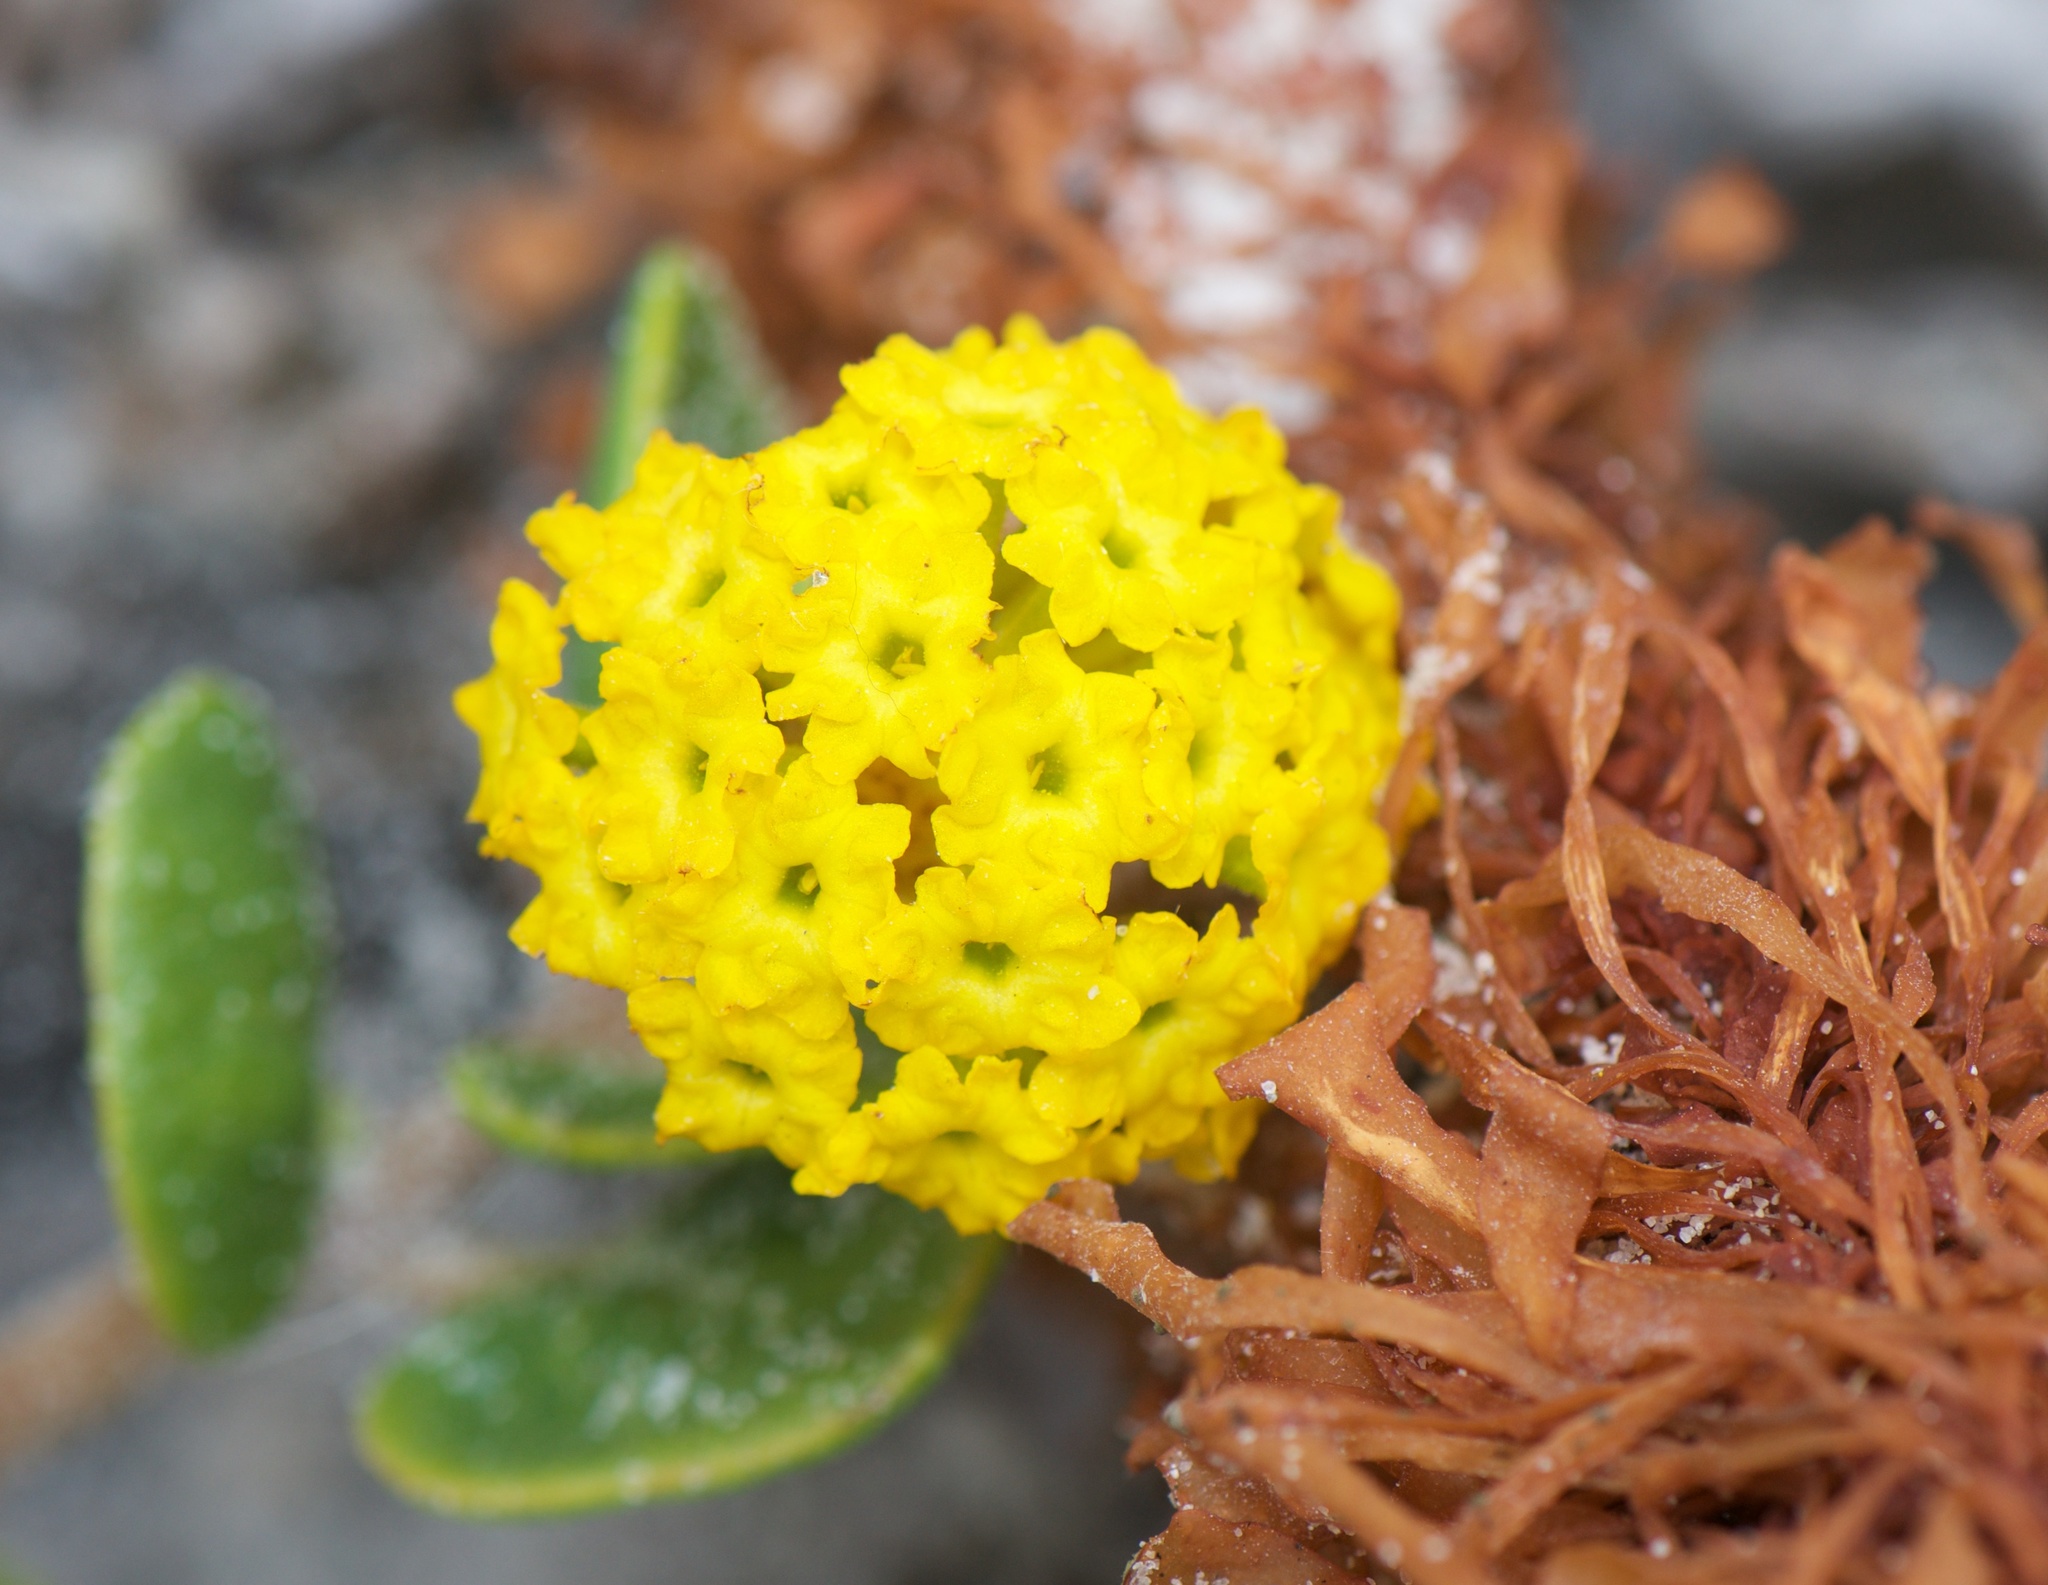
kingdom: Plantae
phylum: Tracheophyta
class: Magnoliopsida
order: Caryophyllales
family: Nyctaginaceae
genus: Abronia
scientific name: Abronia latifolia
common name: Yellow sand-verbena
